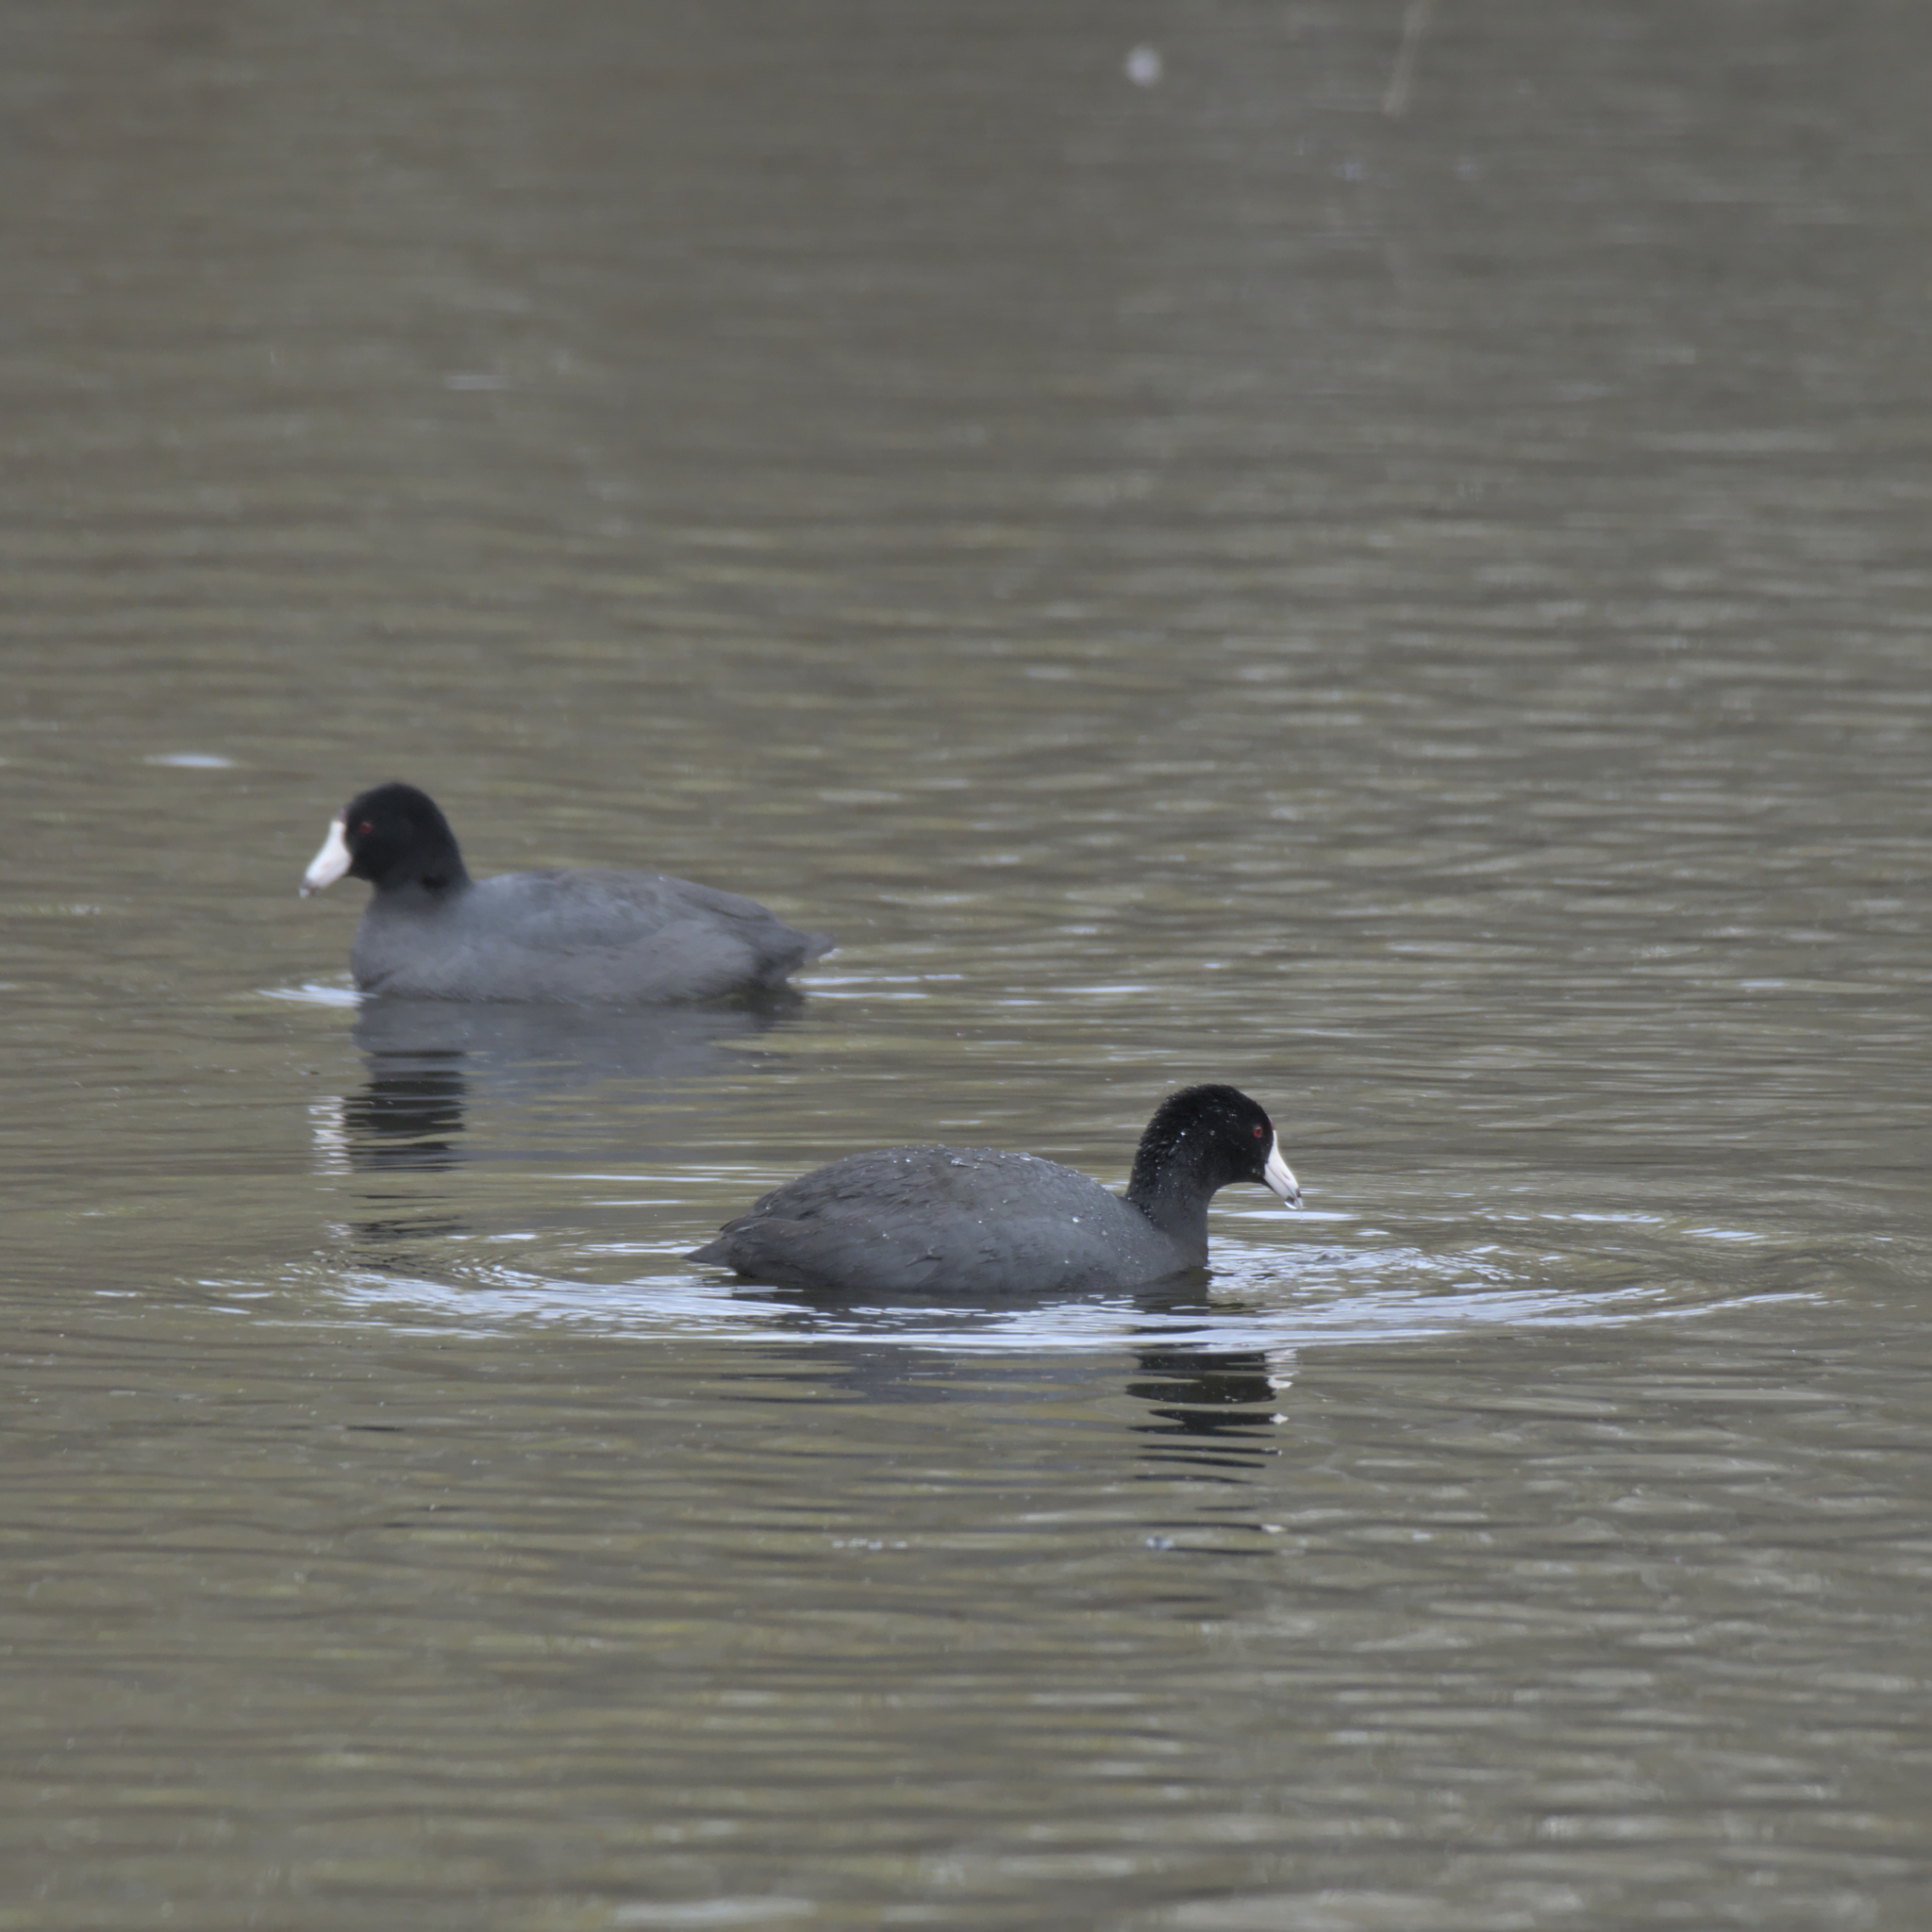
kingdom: Animalia
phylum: Chordata
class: Aves
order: Gruiformes
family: Rallidae
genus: Fulica
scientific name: Fulica americana
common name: American coot
